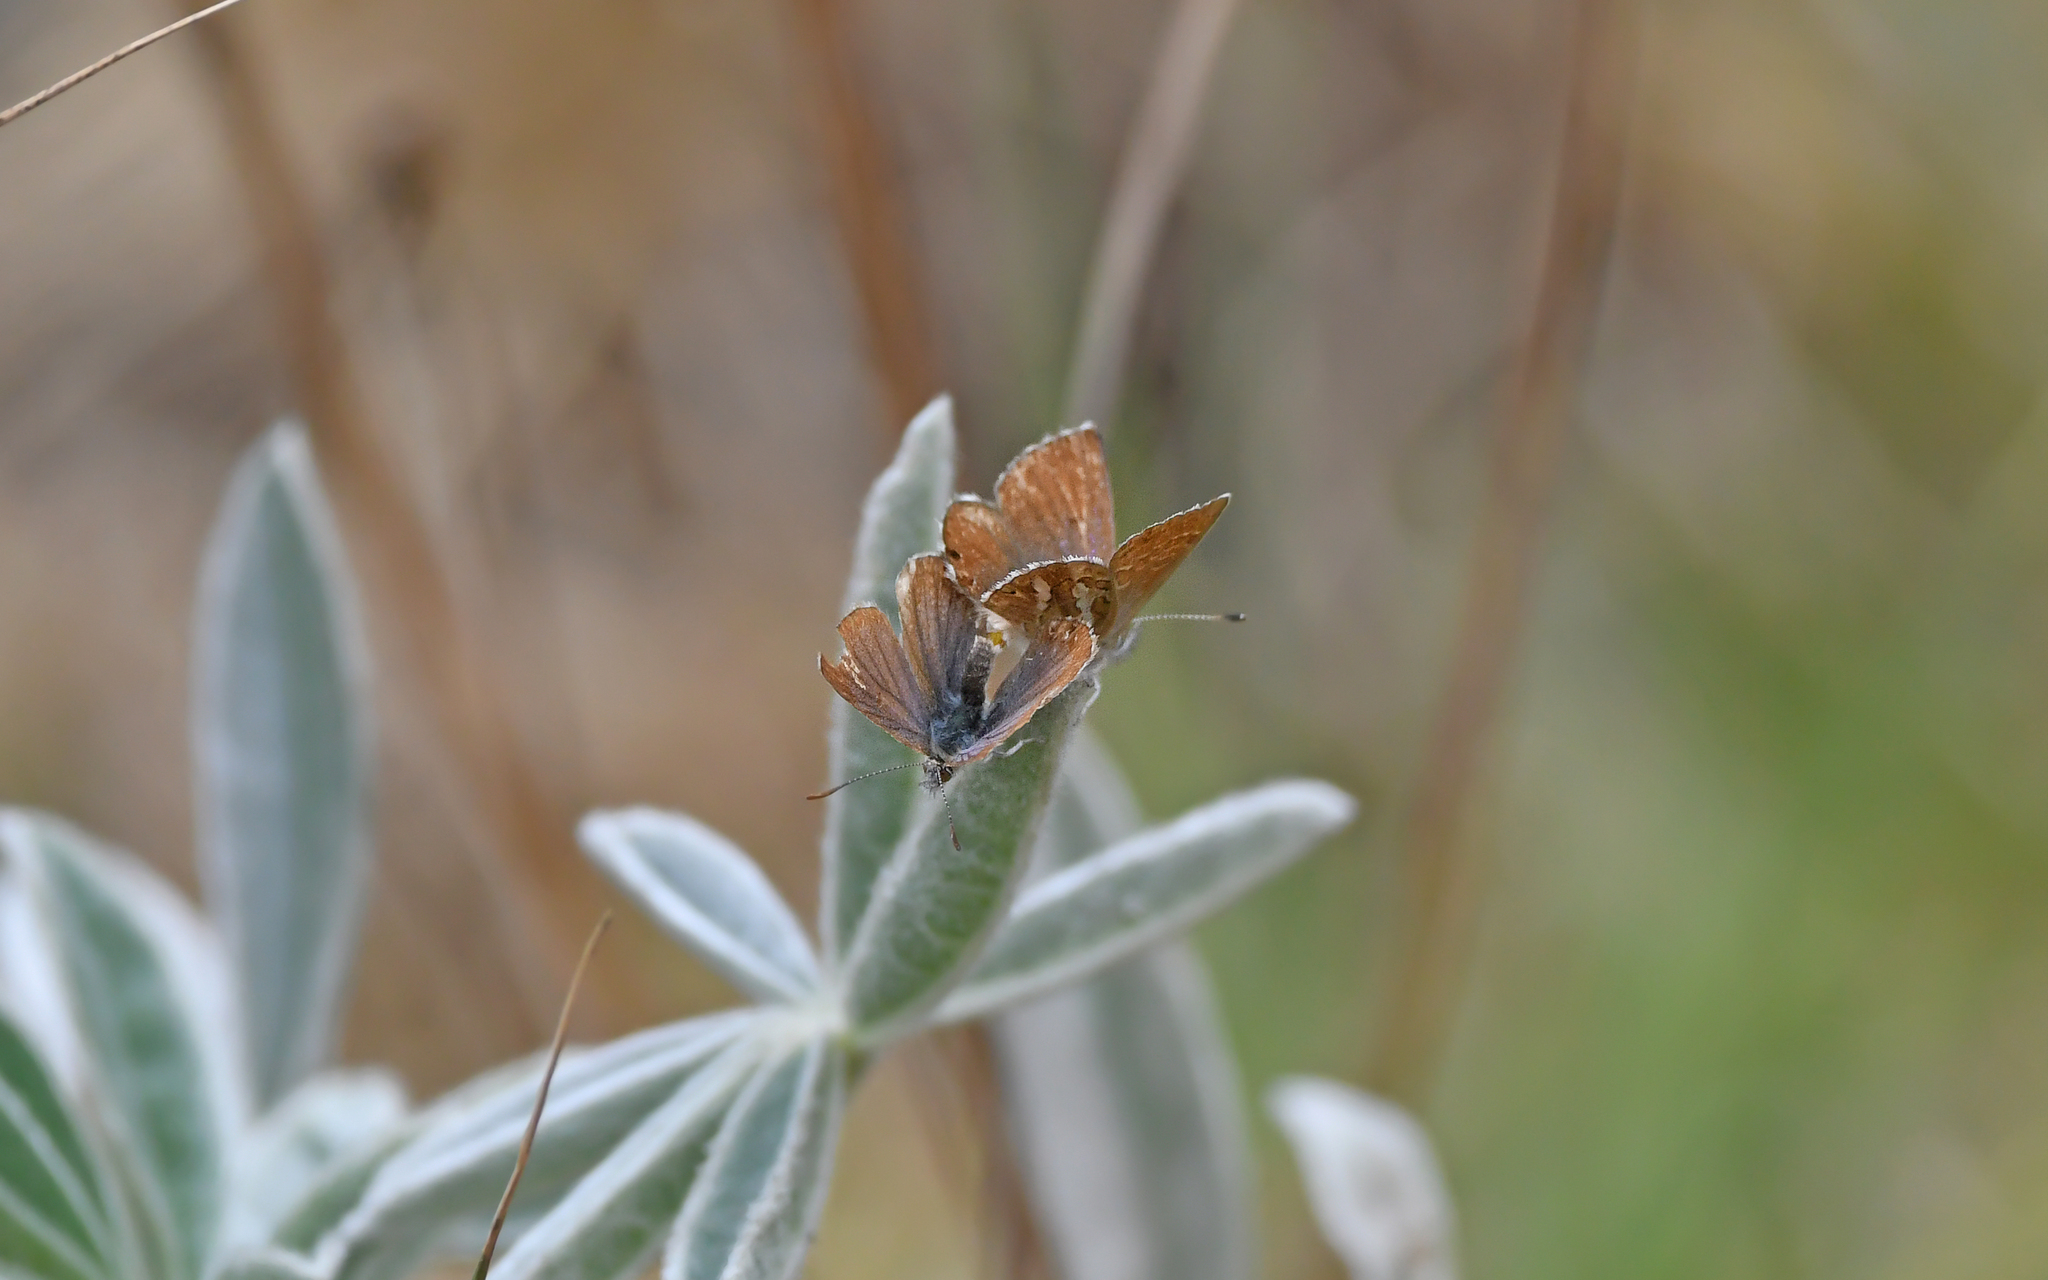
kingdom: Animalia
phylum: Arthropoda
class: Insecta
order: Lepidoptera
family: Lycaenidae
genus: Itylos
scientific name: Itylos koa
